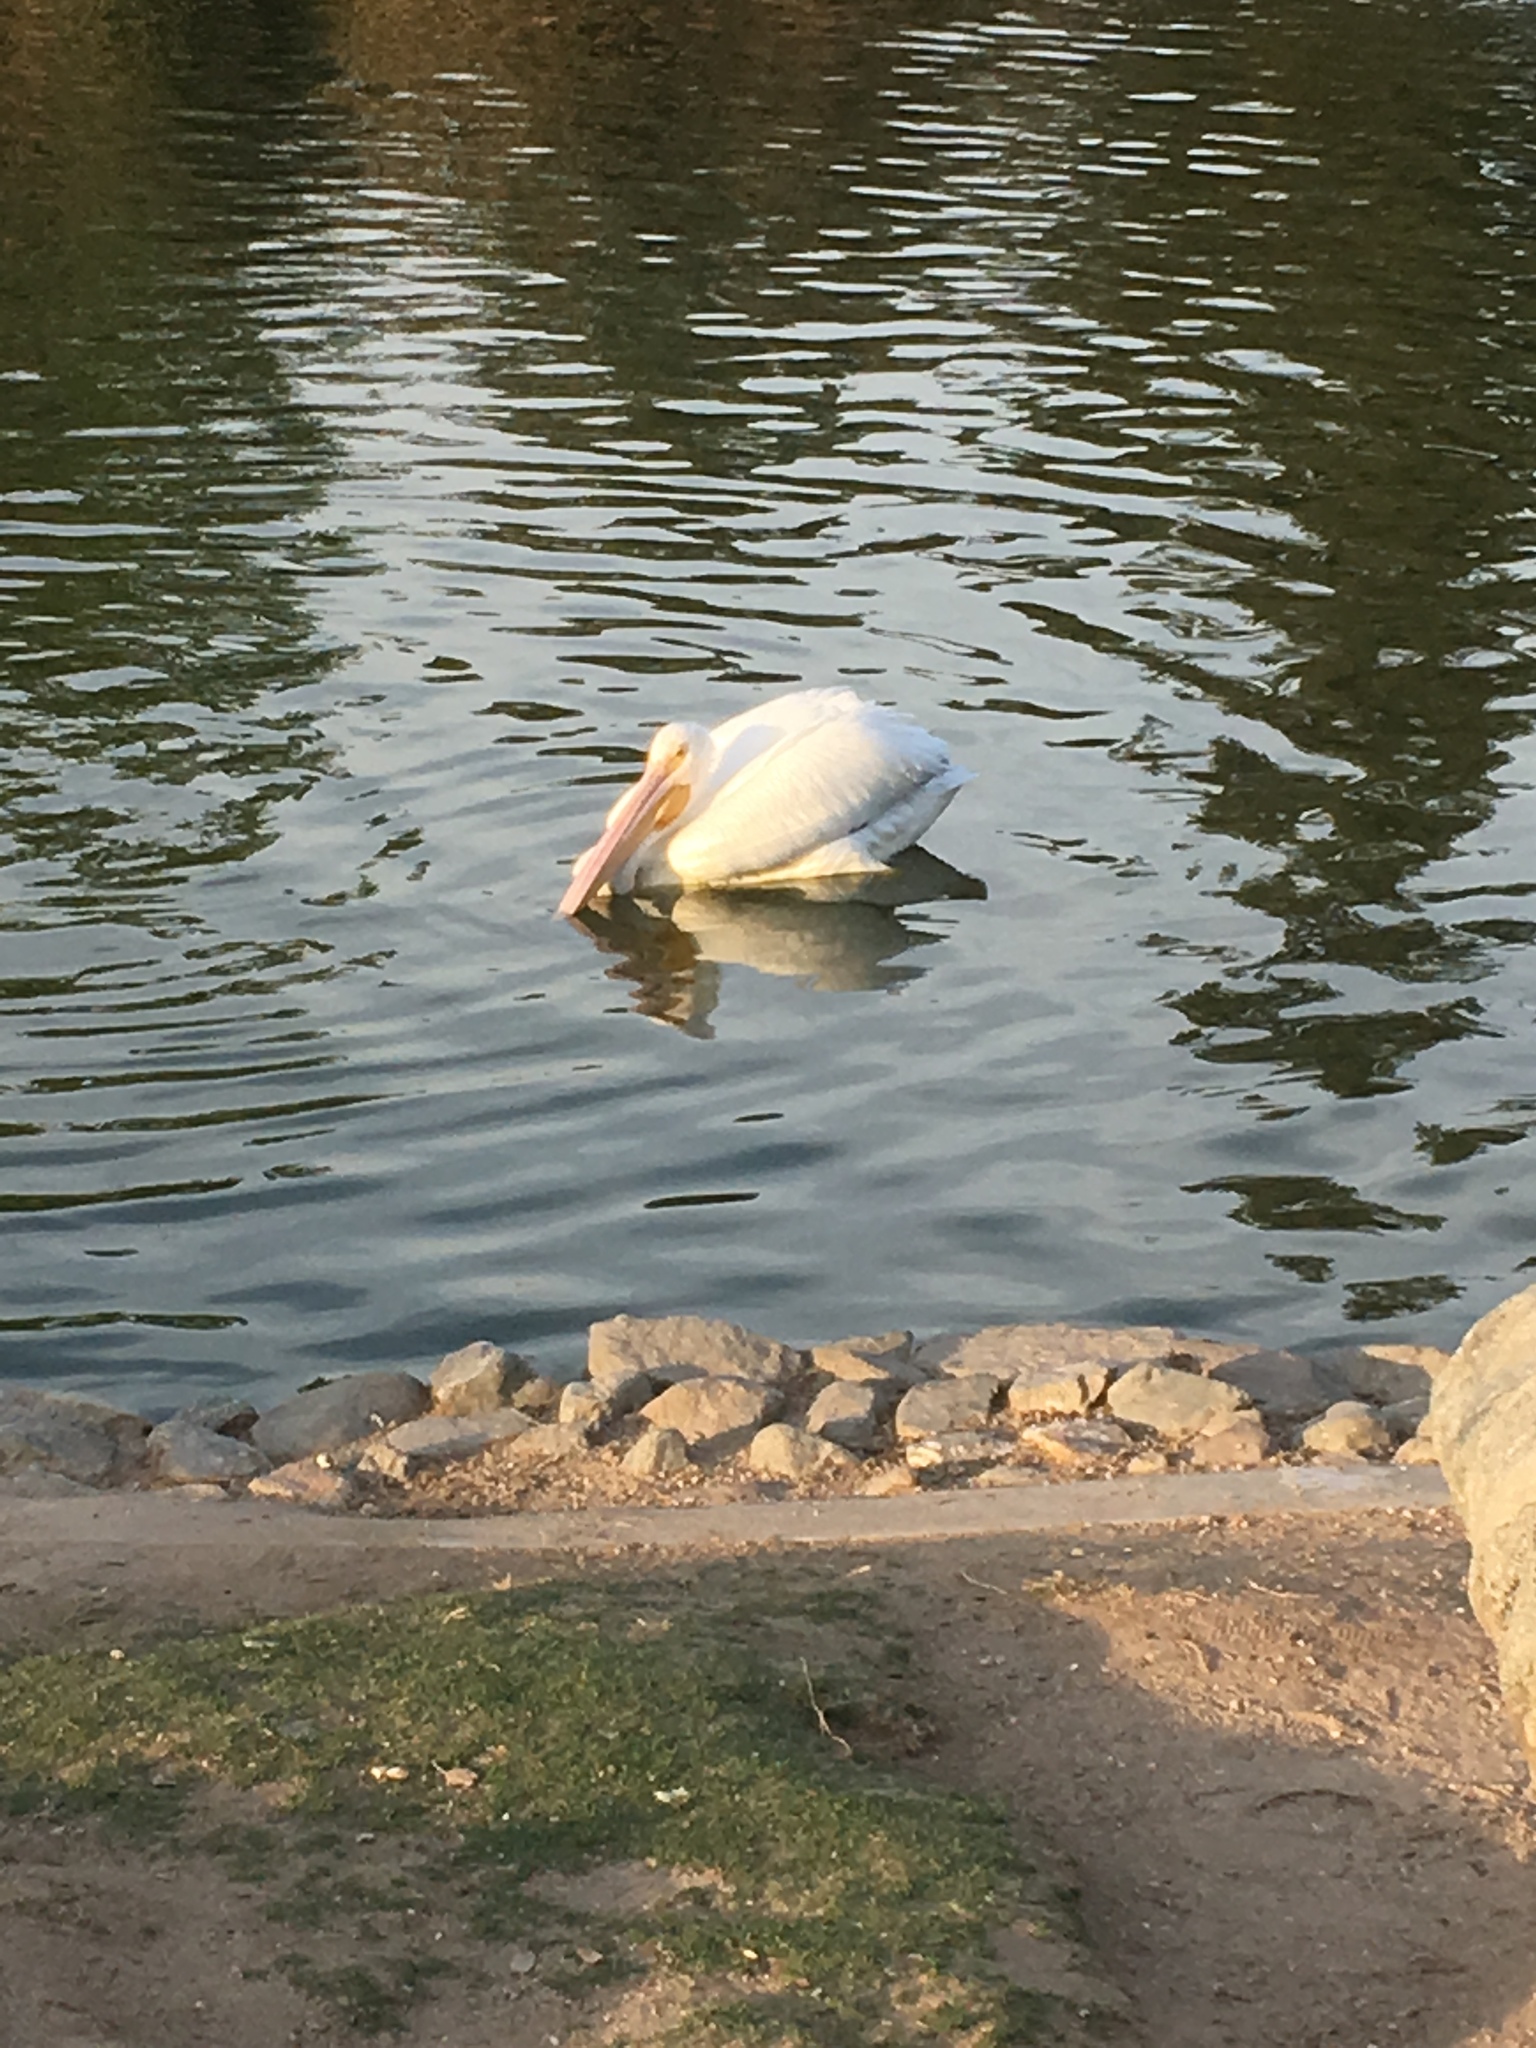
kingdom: Animalia
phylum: Chordata
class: Aves
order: Pelecaniformes
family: Pelecanidae
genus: Pelecanus
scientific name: Pelecanus erythrorhynchos
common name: American white pelican
